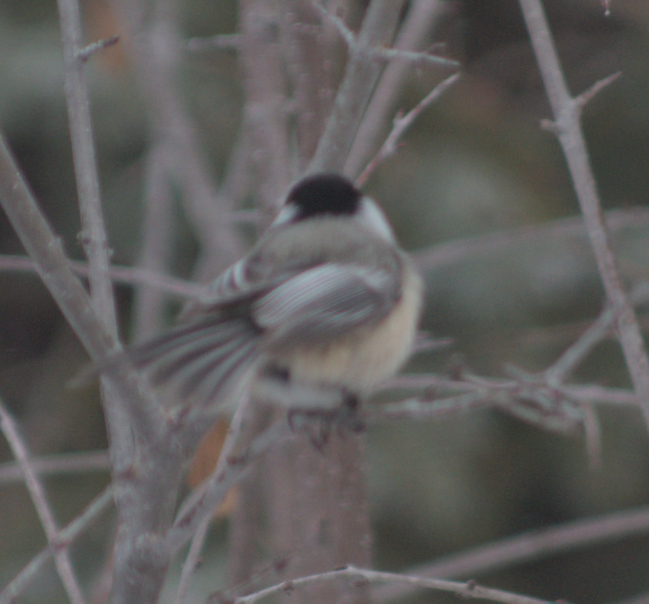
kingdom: Animalia
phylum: Chordata
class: Aves
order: Passeriformes
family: Paridae
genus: Poecile
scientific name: Poecile atricapillus
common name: Black-capped chickadee
